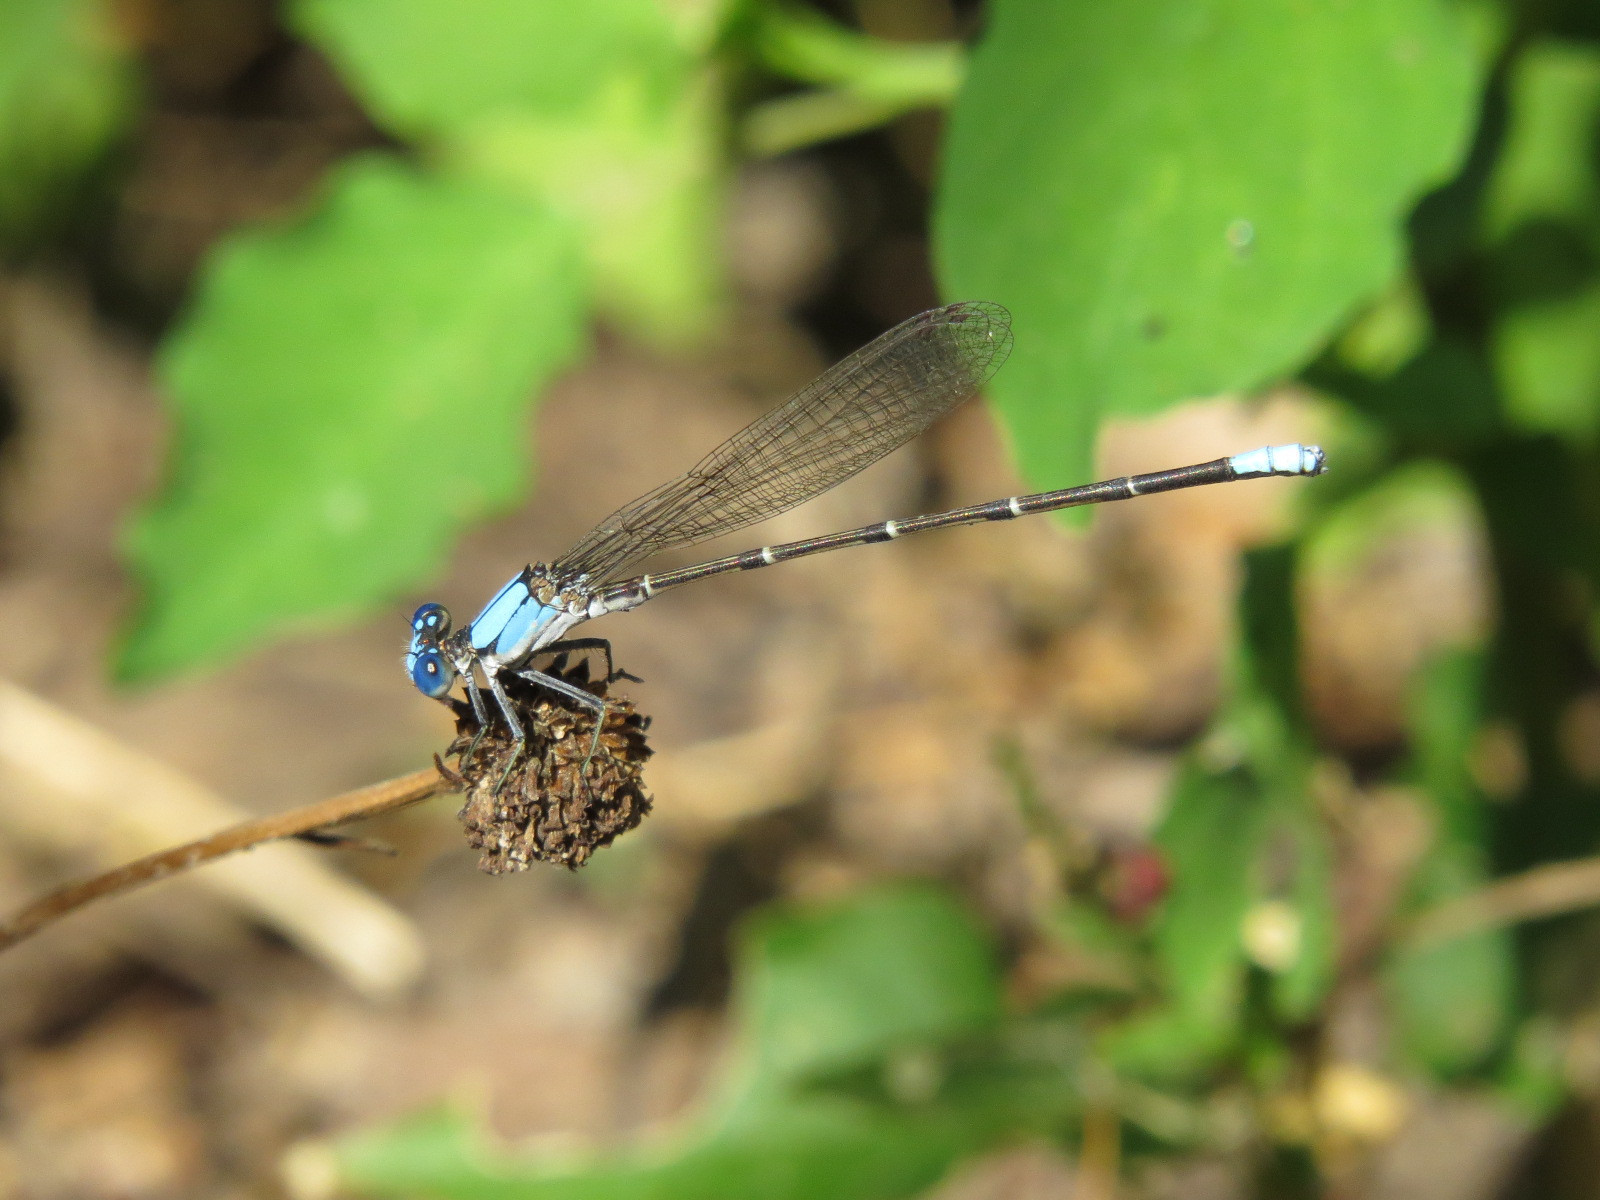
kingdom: Animalia
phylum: Arthropoda
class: Insecta
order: Odonata
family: Coenagrionidae
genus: Argia
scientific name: Argia apicalis
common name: Blue-fronted dancer
